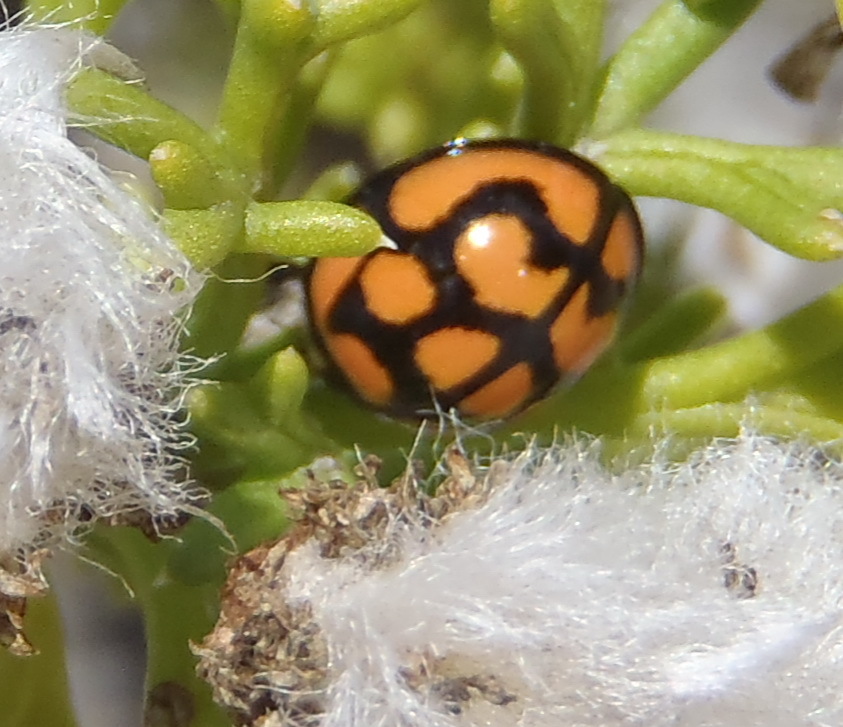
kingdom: Animalia
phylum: Arthropoda
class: Insecta
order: Coleoptera
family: Coccinellidae
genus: Cheilomenes
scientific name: Cheilomenes lunata
